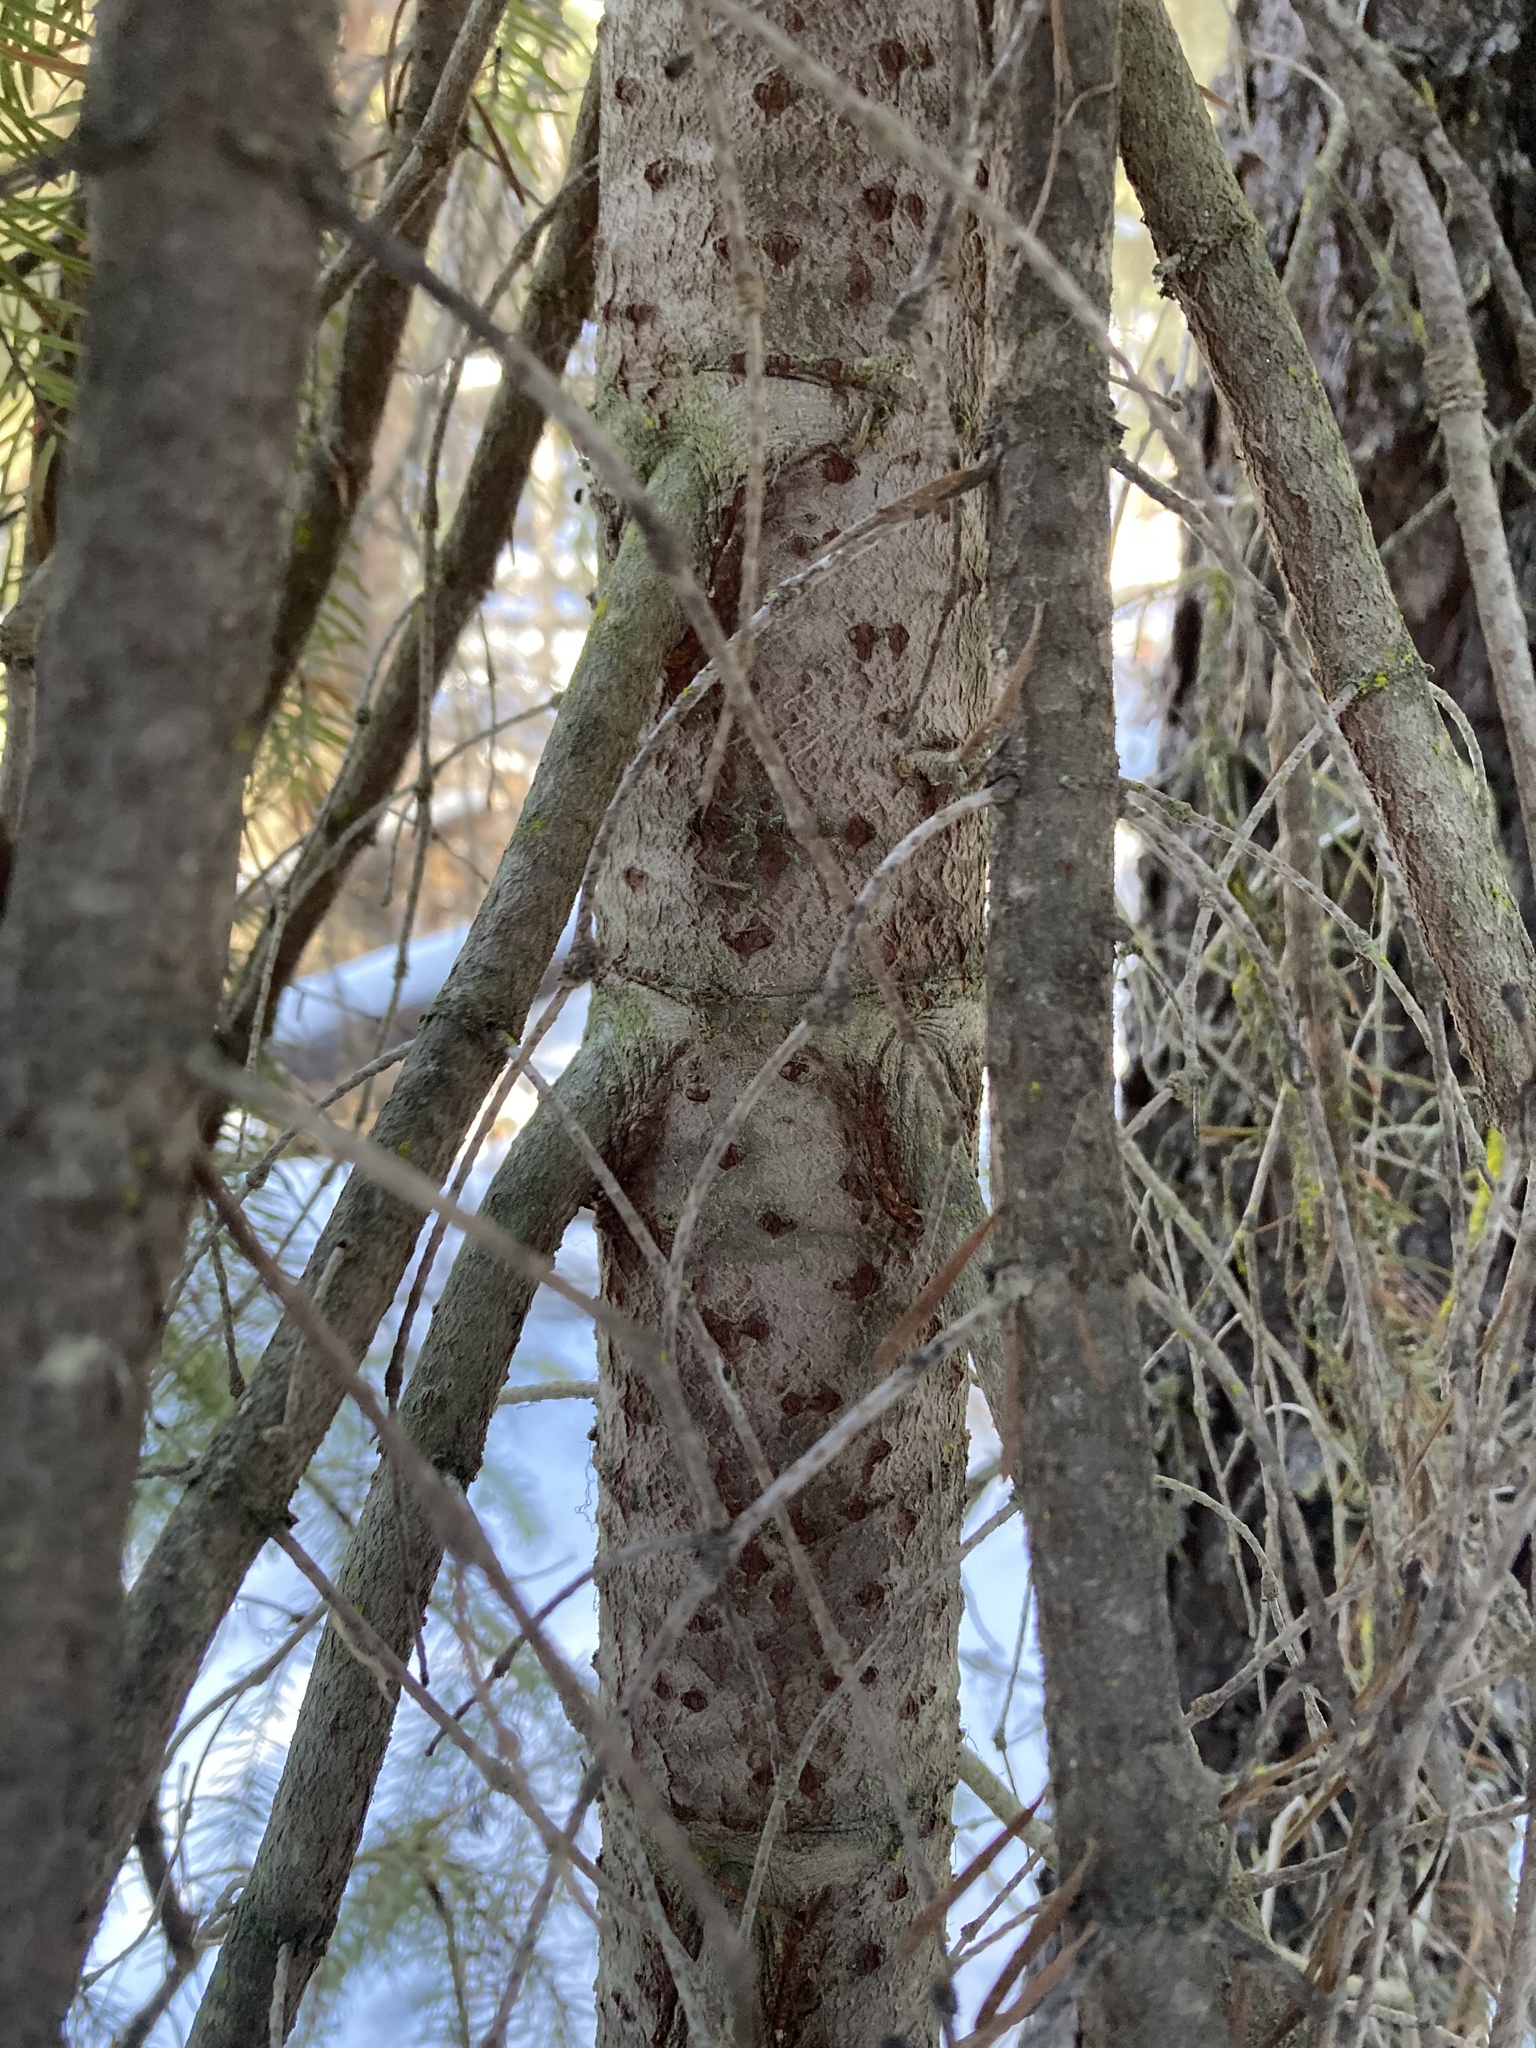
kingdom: Plantae
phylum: Tracheophyta
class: Pinopsida
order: Pinales
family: Pinaceae
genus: Abies
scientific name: Abies lasiocarpa
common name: Subalpine fir
